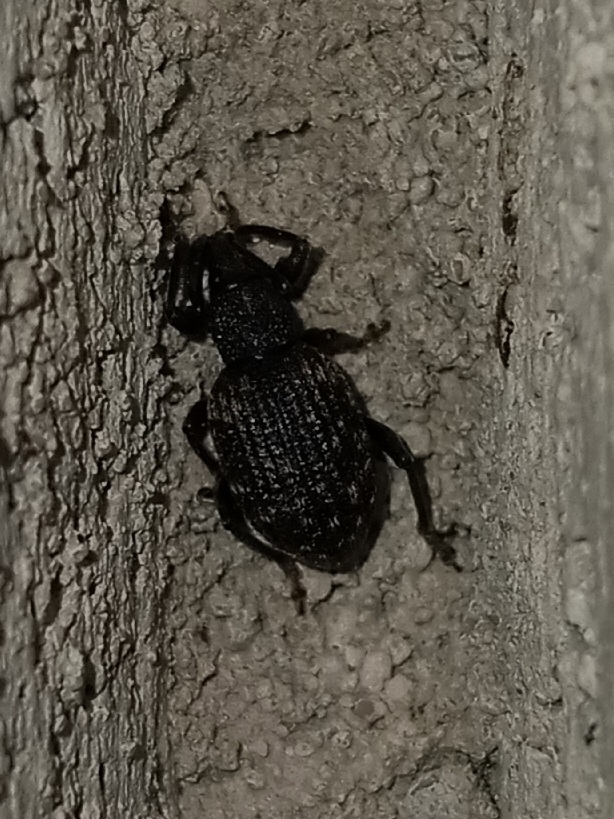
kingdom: Animalia
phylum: Arthropoda
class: Insecta
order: Coleoptera
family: Curculionidae
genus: Otiorhynchus
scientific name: Otiorhynchus sulcatus
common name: Black vine weevil
